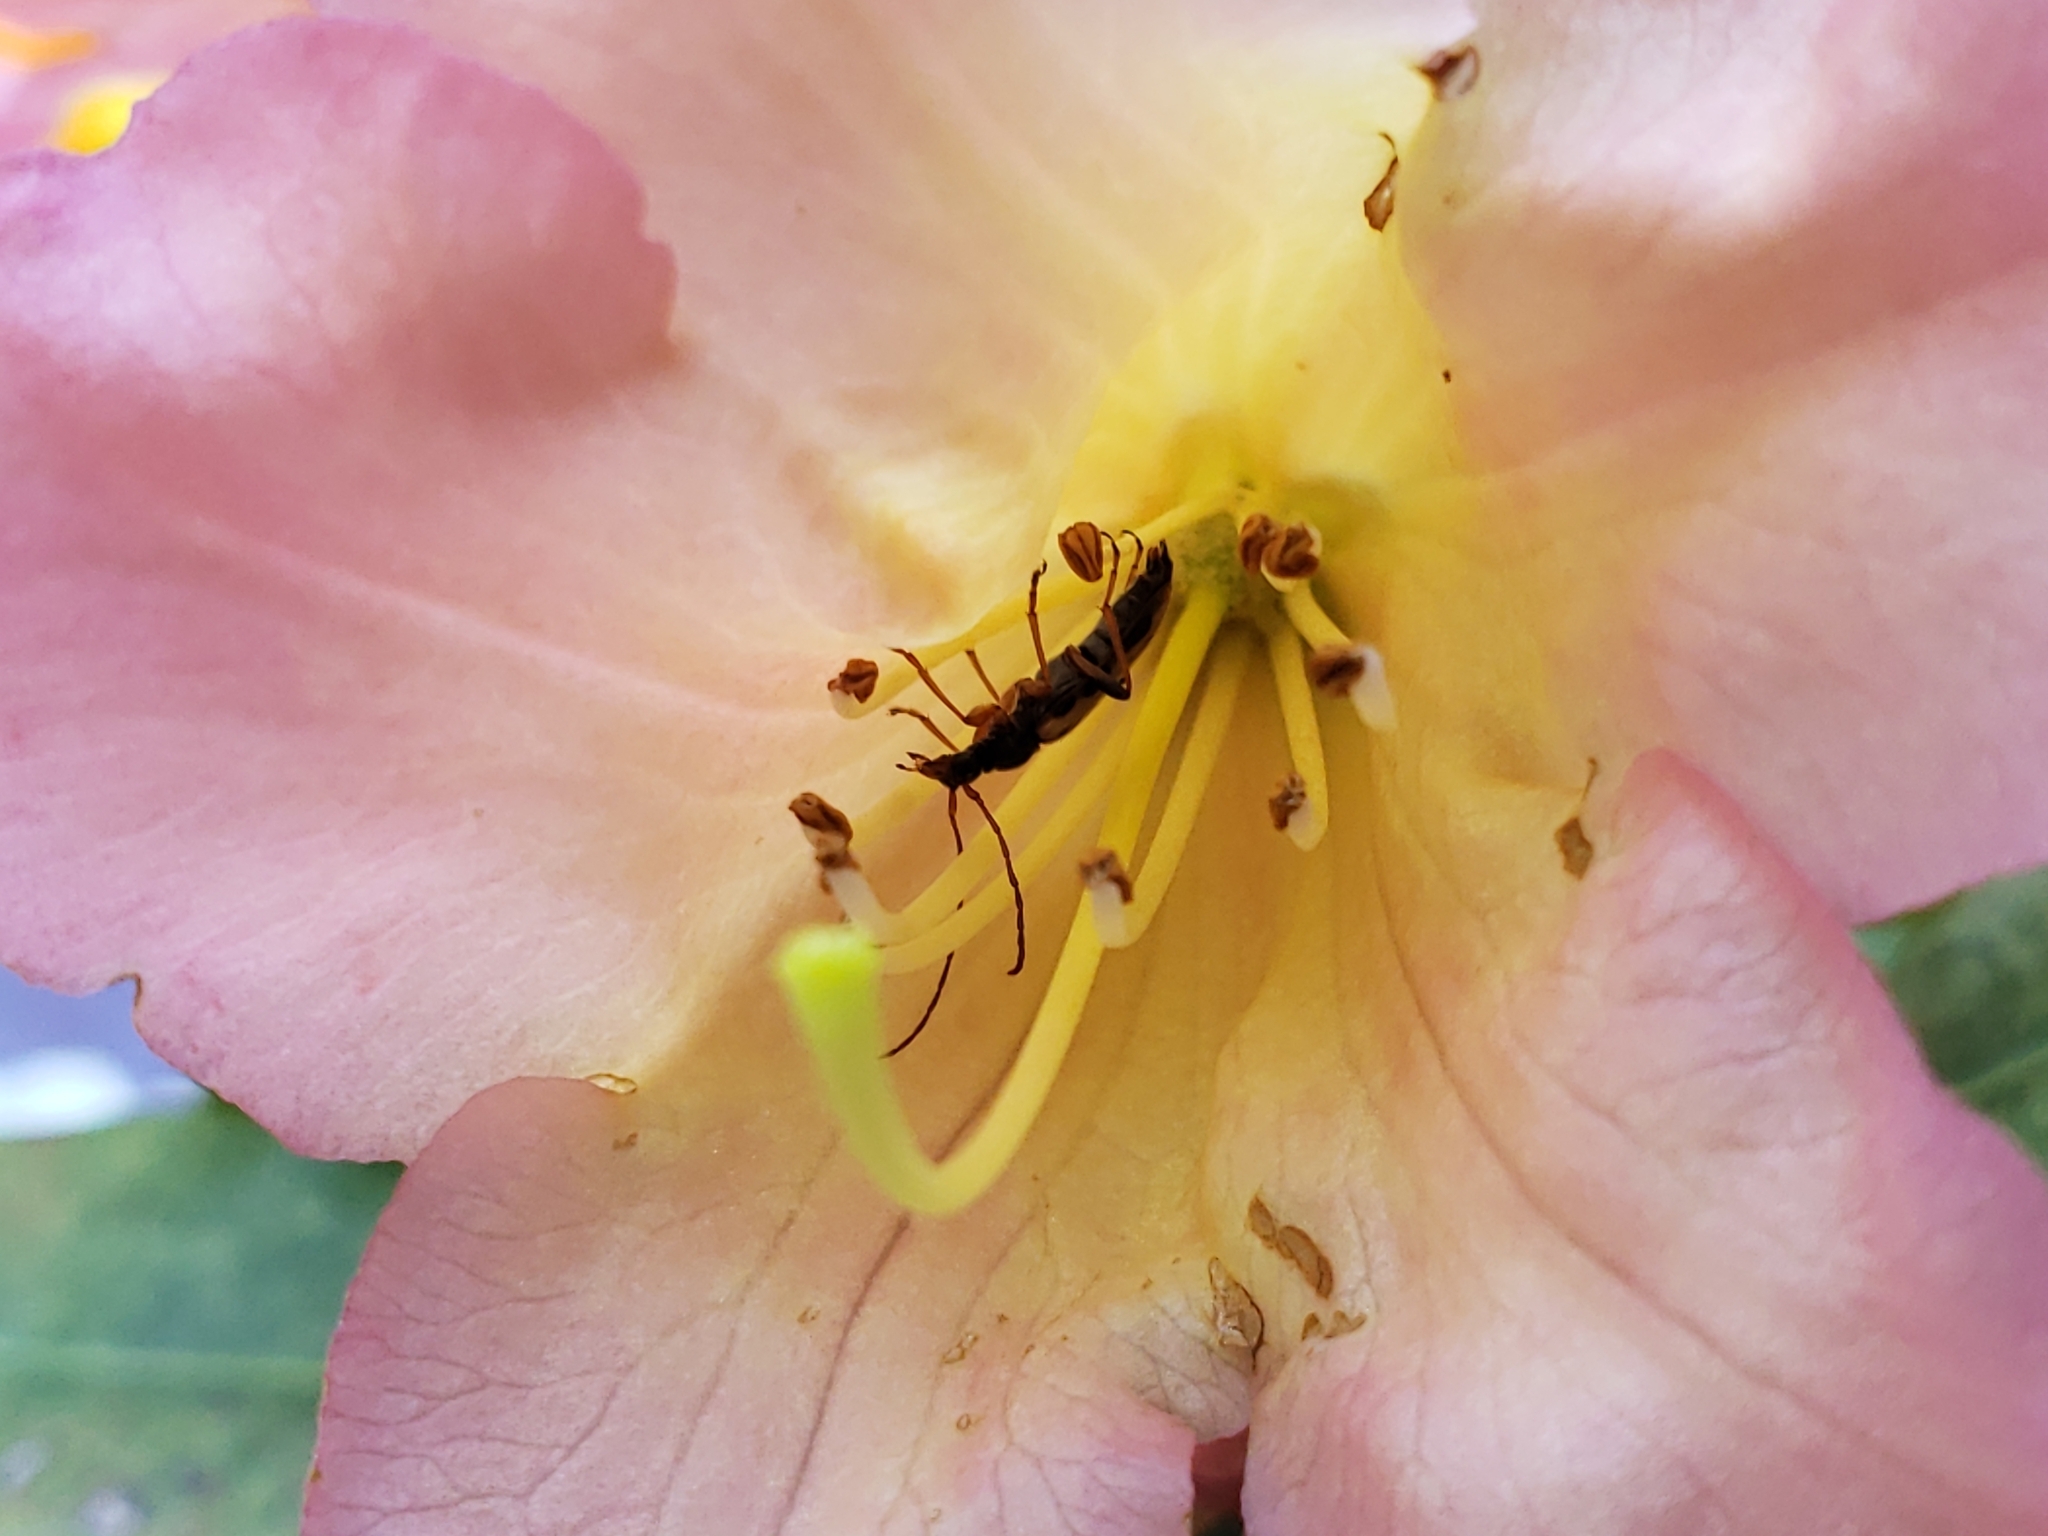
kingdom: Animalia
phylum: Arthropoda
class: Insecta
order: Coleoptera
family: Cerambycidae
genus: Pidonia
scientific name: Pidonia scripta
